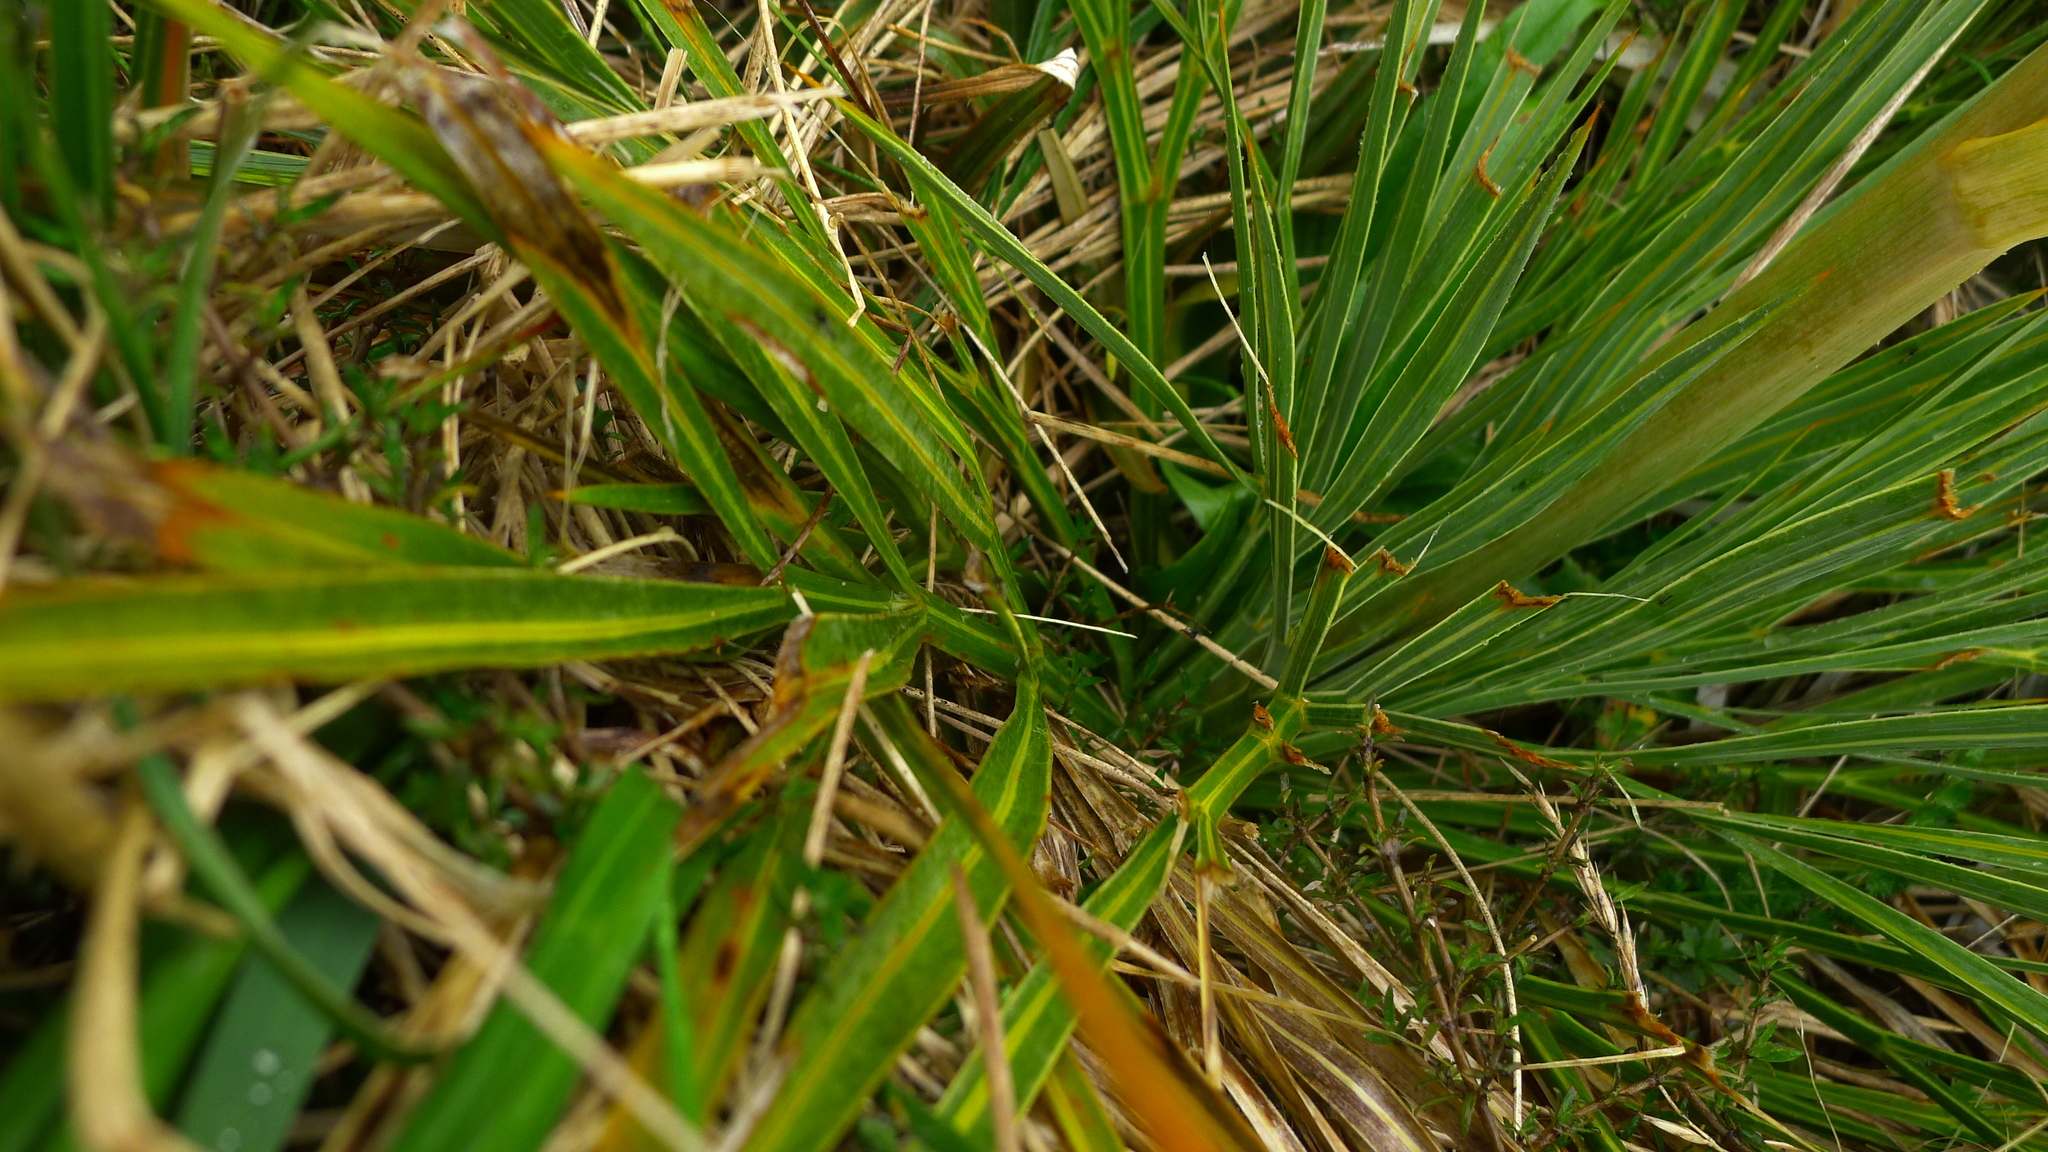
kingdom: Plantae
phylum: Tracheophyta
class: Magnoliopsida
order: Apiales
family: Apiaceae
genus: Aciphylla
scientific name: Aciphylla colensoi
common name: Colenso's spaniard
